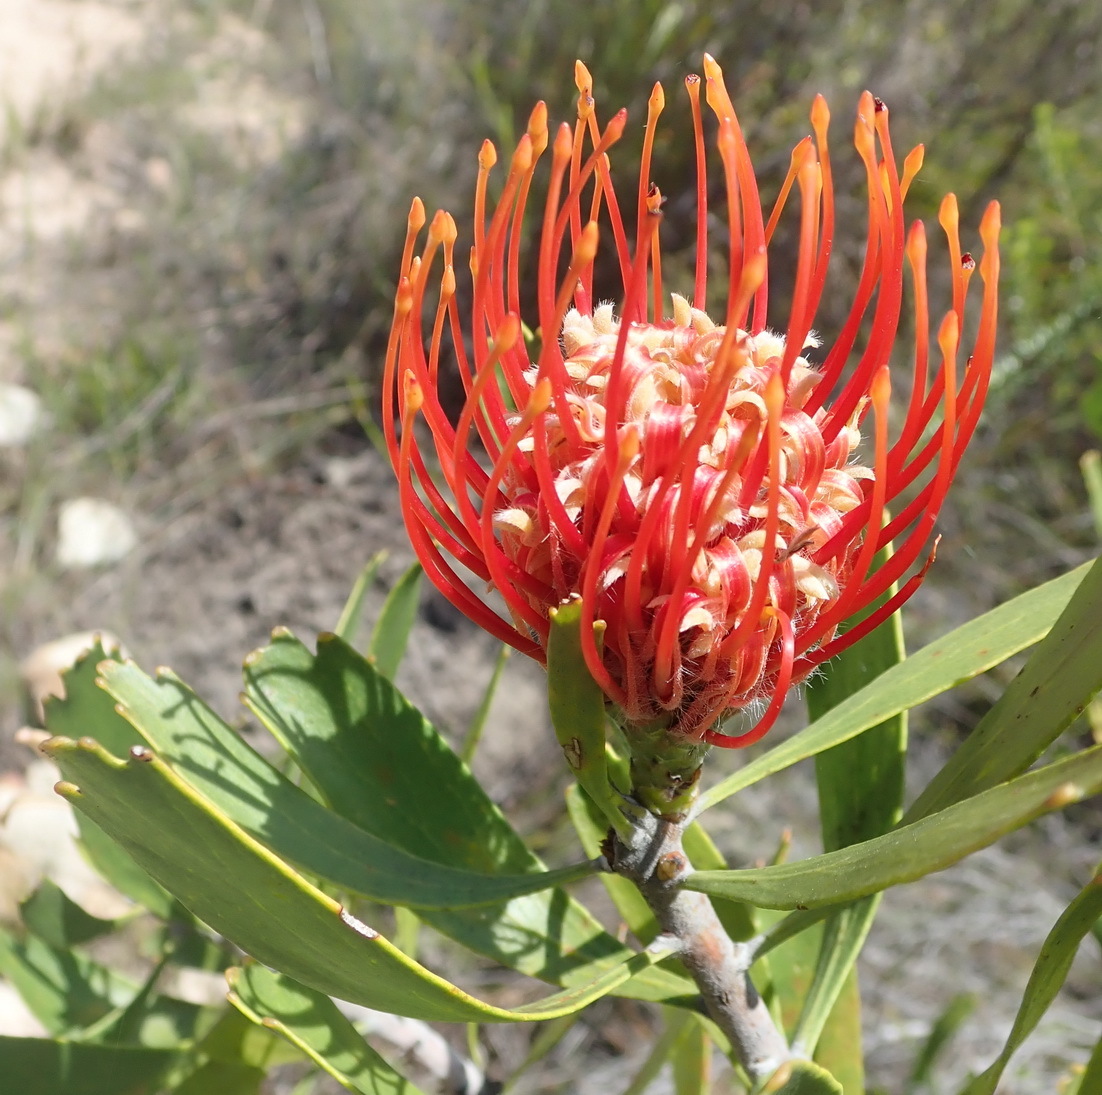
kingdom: Plantae
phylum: Tracheophyta
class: Magnoliopsida
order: Proteales
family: Proteaceae
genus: Leucospermum
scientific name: Leucospermum cuneiforme
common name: Common pincushion
